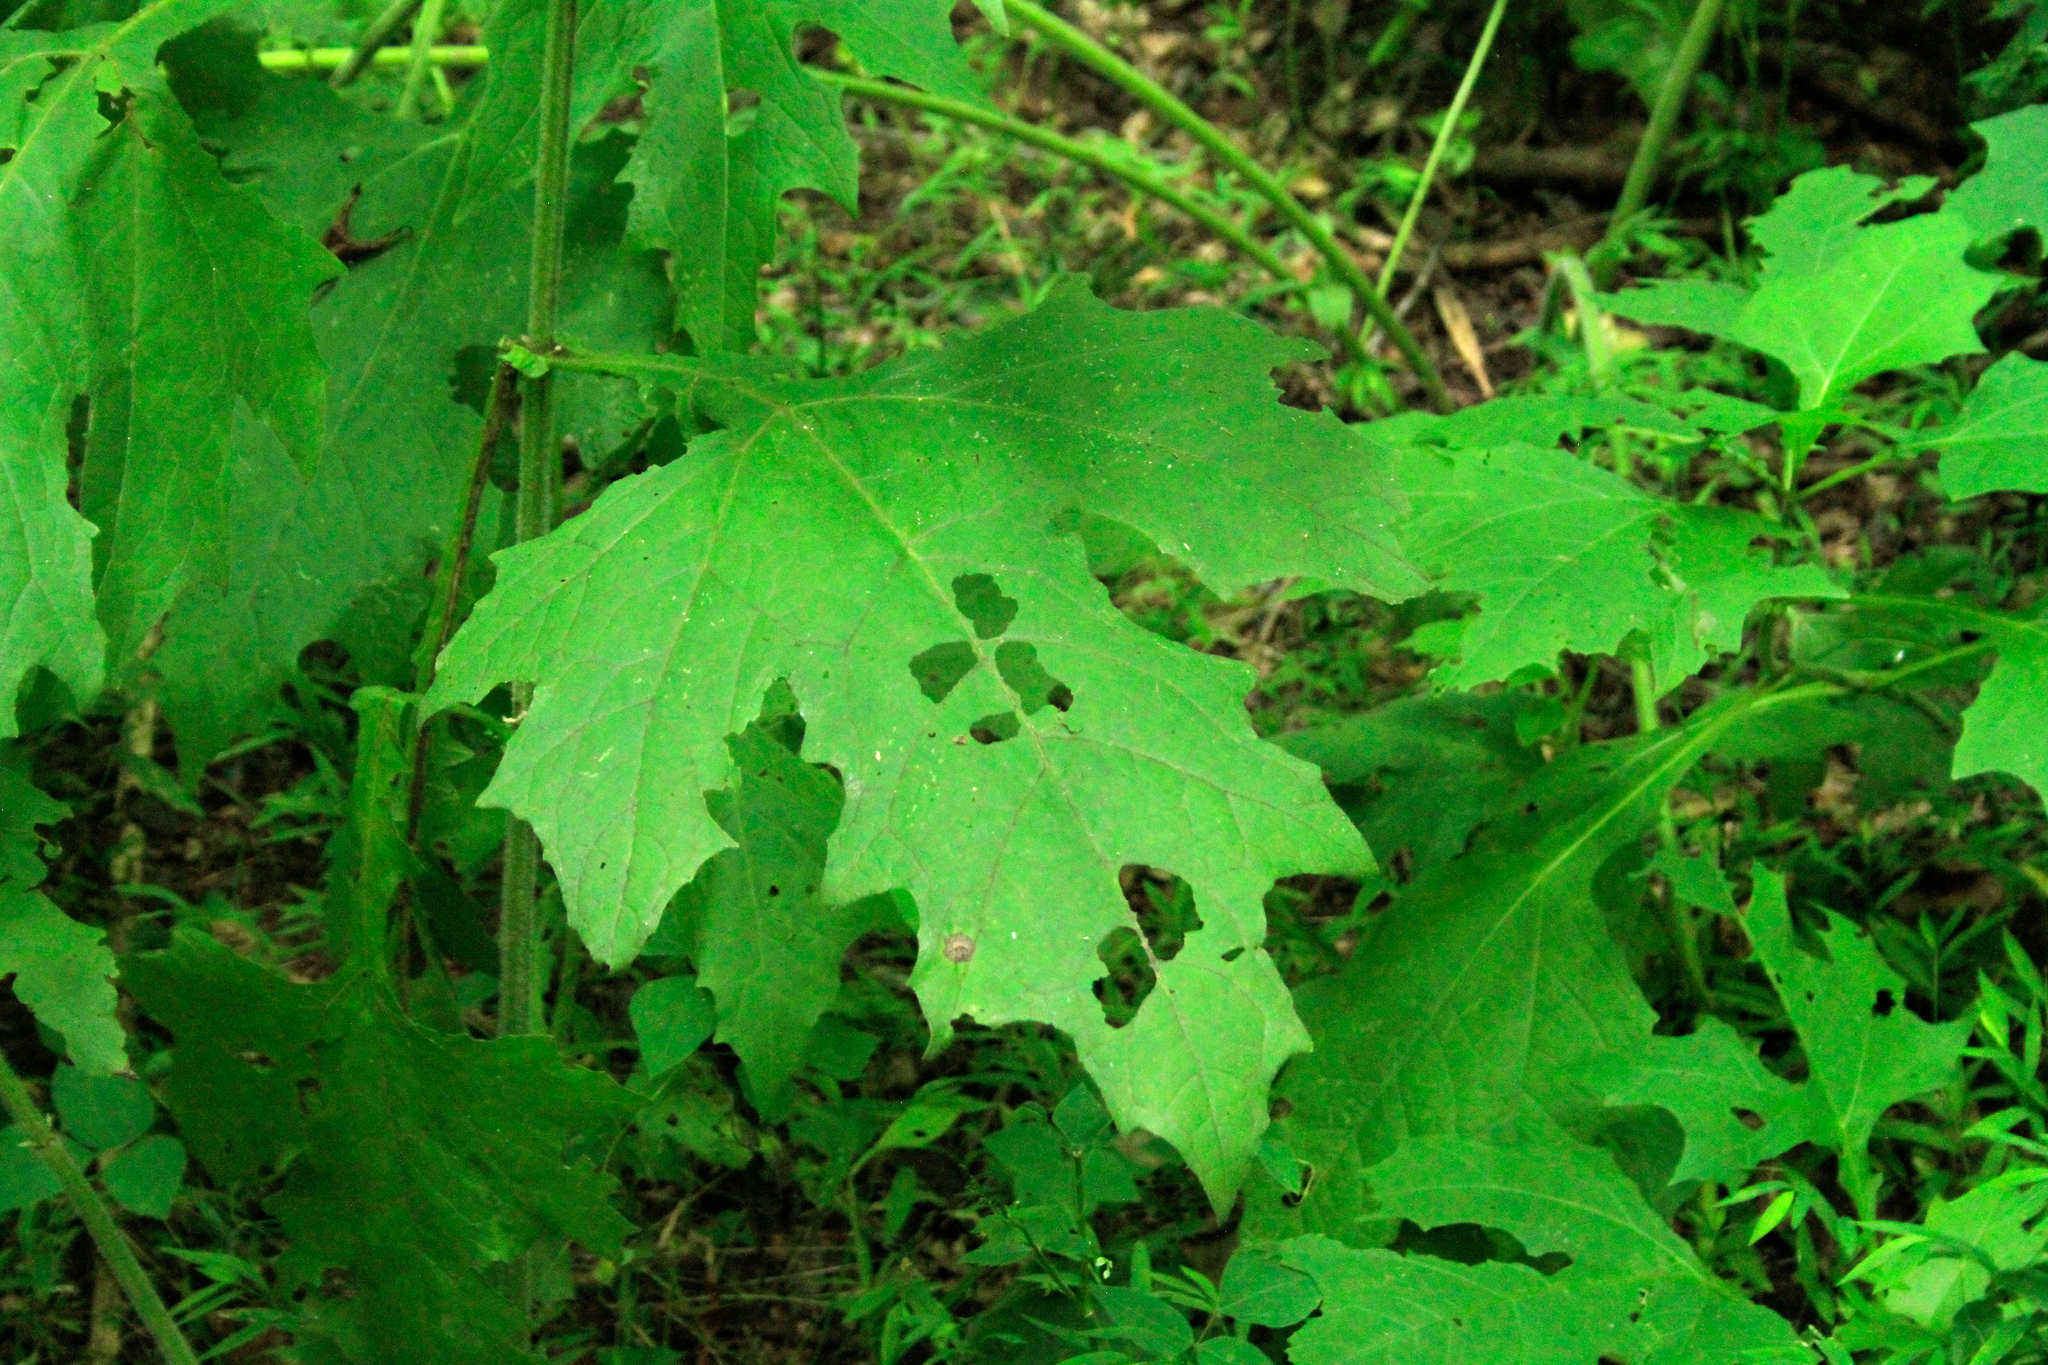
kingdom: Plantae
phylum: Tracheophyta
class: Magnoliopsida
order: Asterales
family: Asteraceae
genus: Smallanthus
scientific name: Smallanthus uvedalia
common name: Bear's-foot
